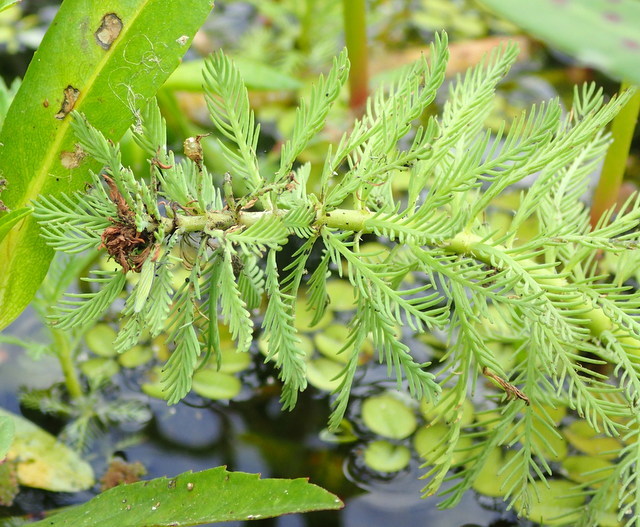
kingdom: Plantae
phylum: Tracheophyta
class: Magnoliopsida
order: Saxifragales
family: Haloragaceae
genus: Myriophyllum
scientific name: Myriophyllum aquaticum
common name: Parrot's feather
